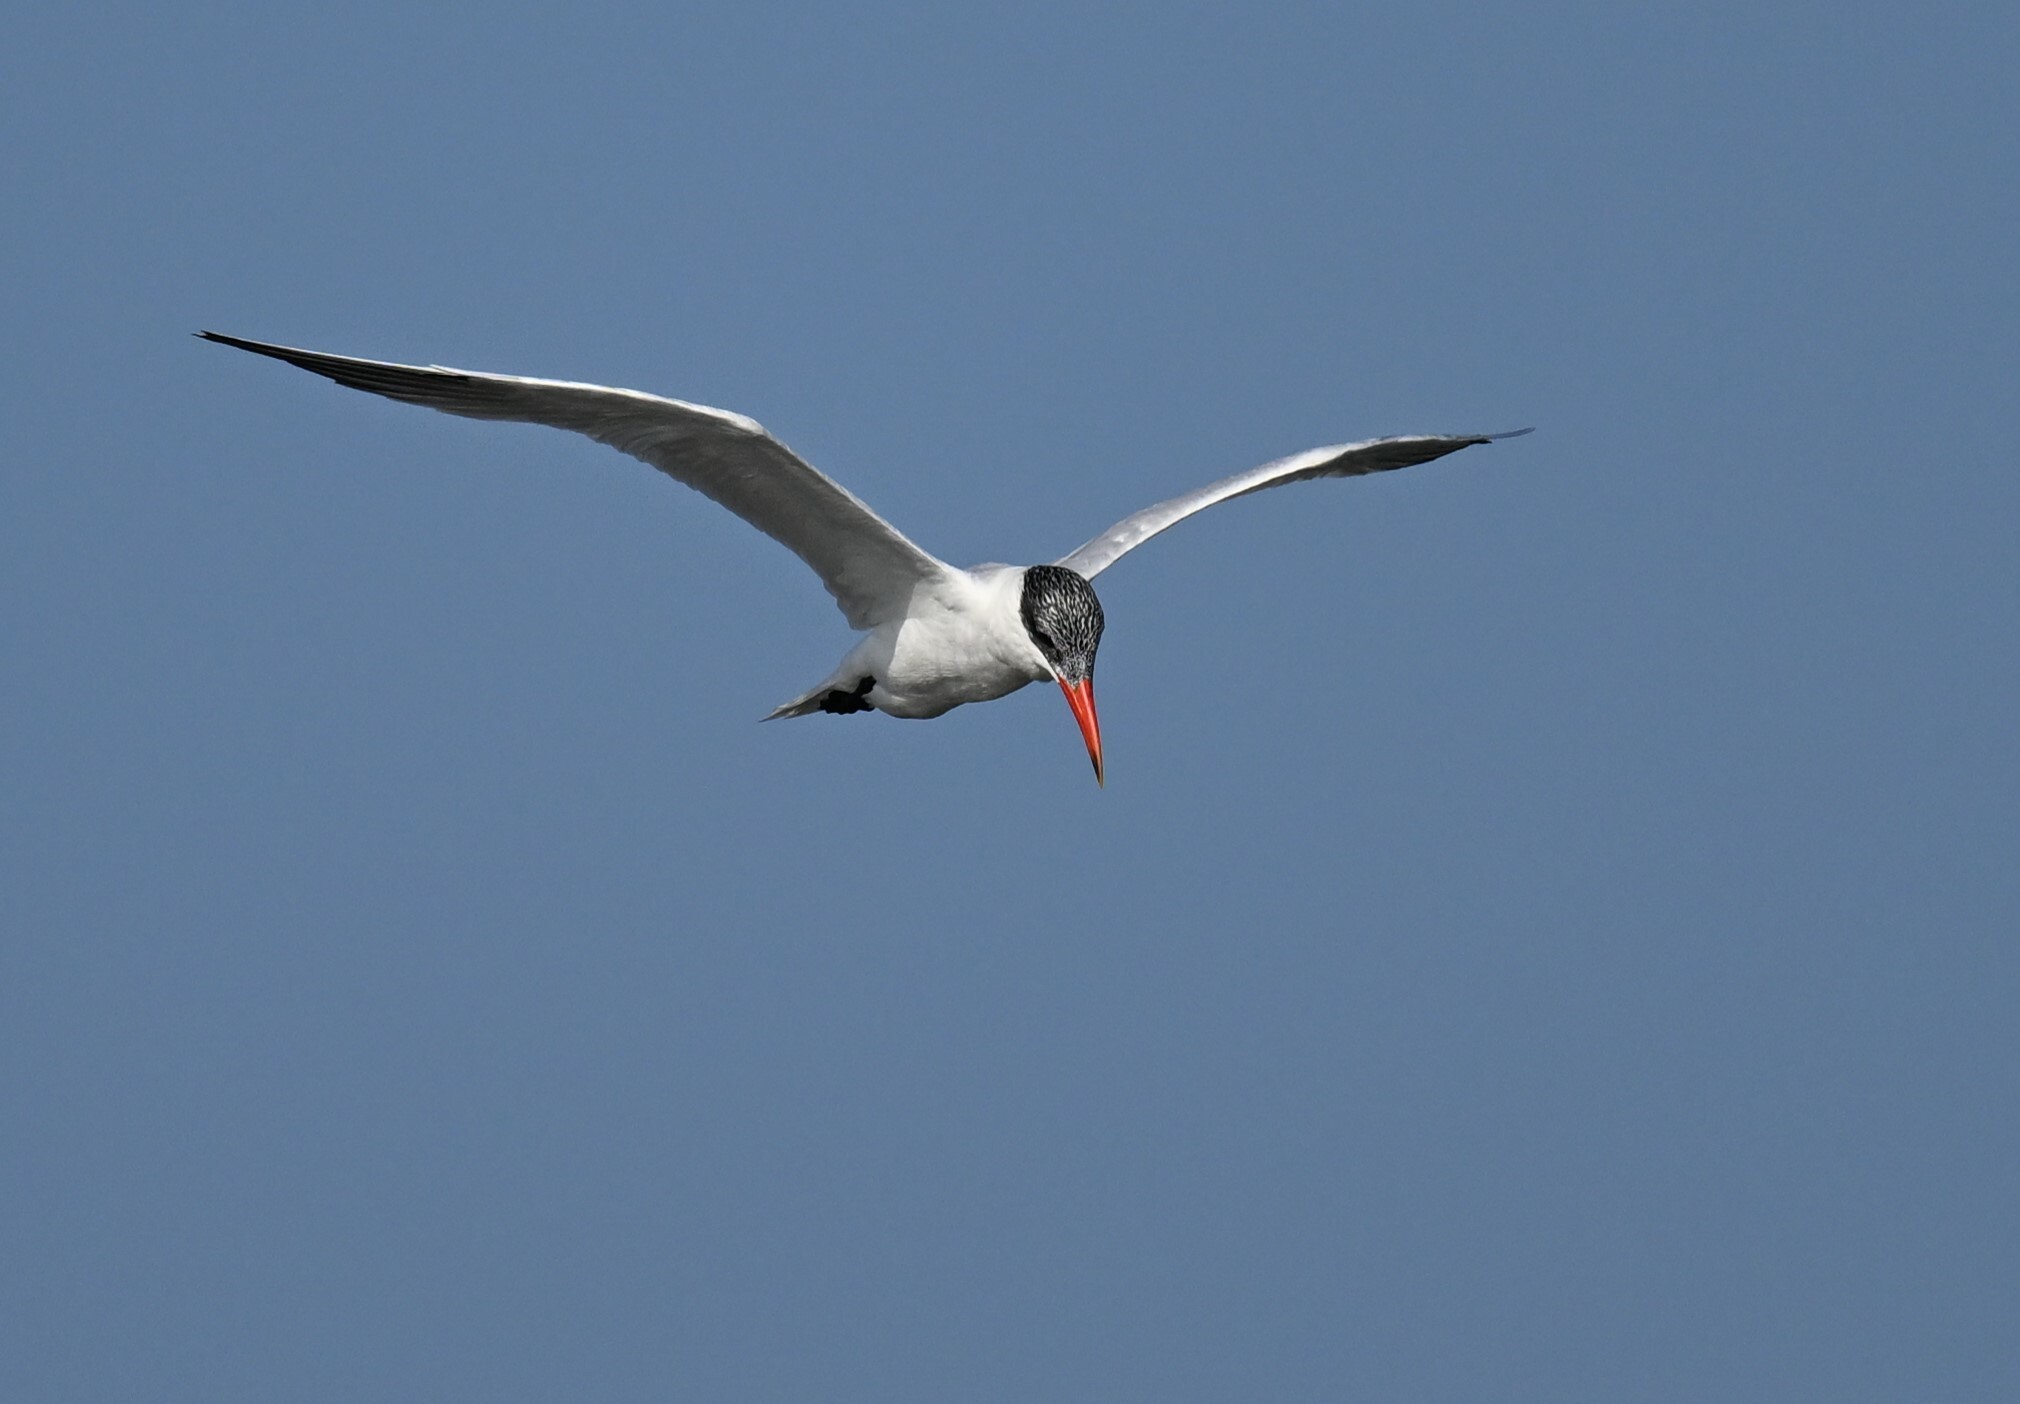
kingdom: Animalia
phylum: Chordata
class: Aves
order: Charadriiformes
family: Laridae
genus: Hydroprogne
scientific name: Hydroprogne caspia
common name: Caspian tern
